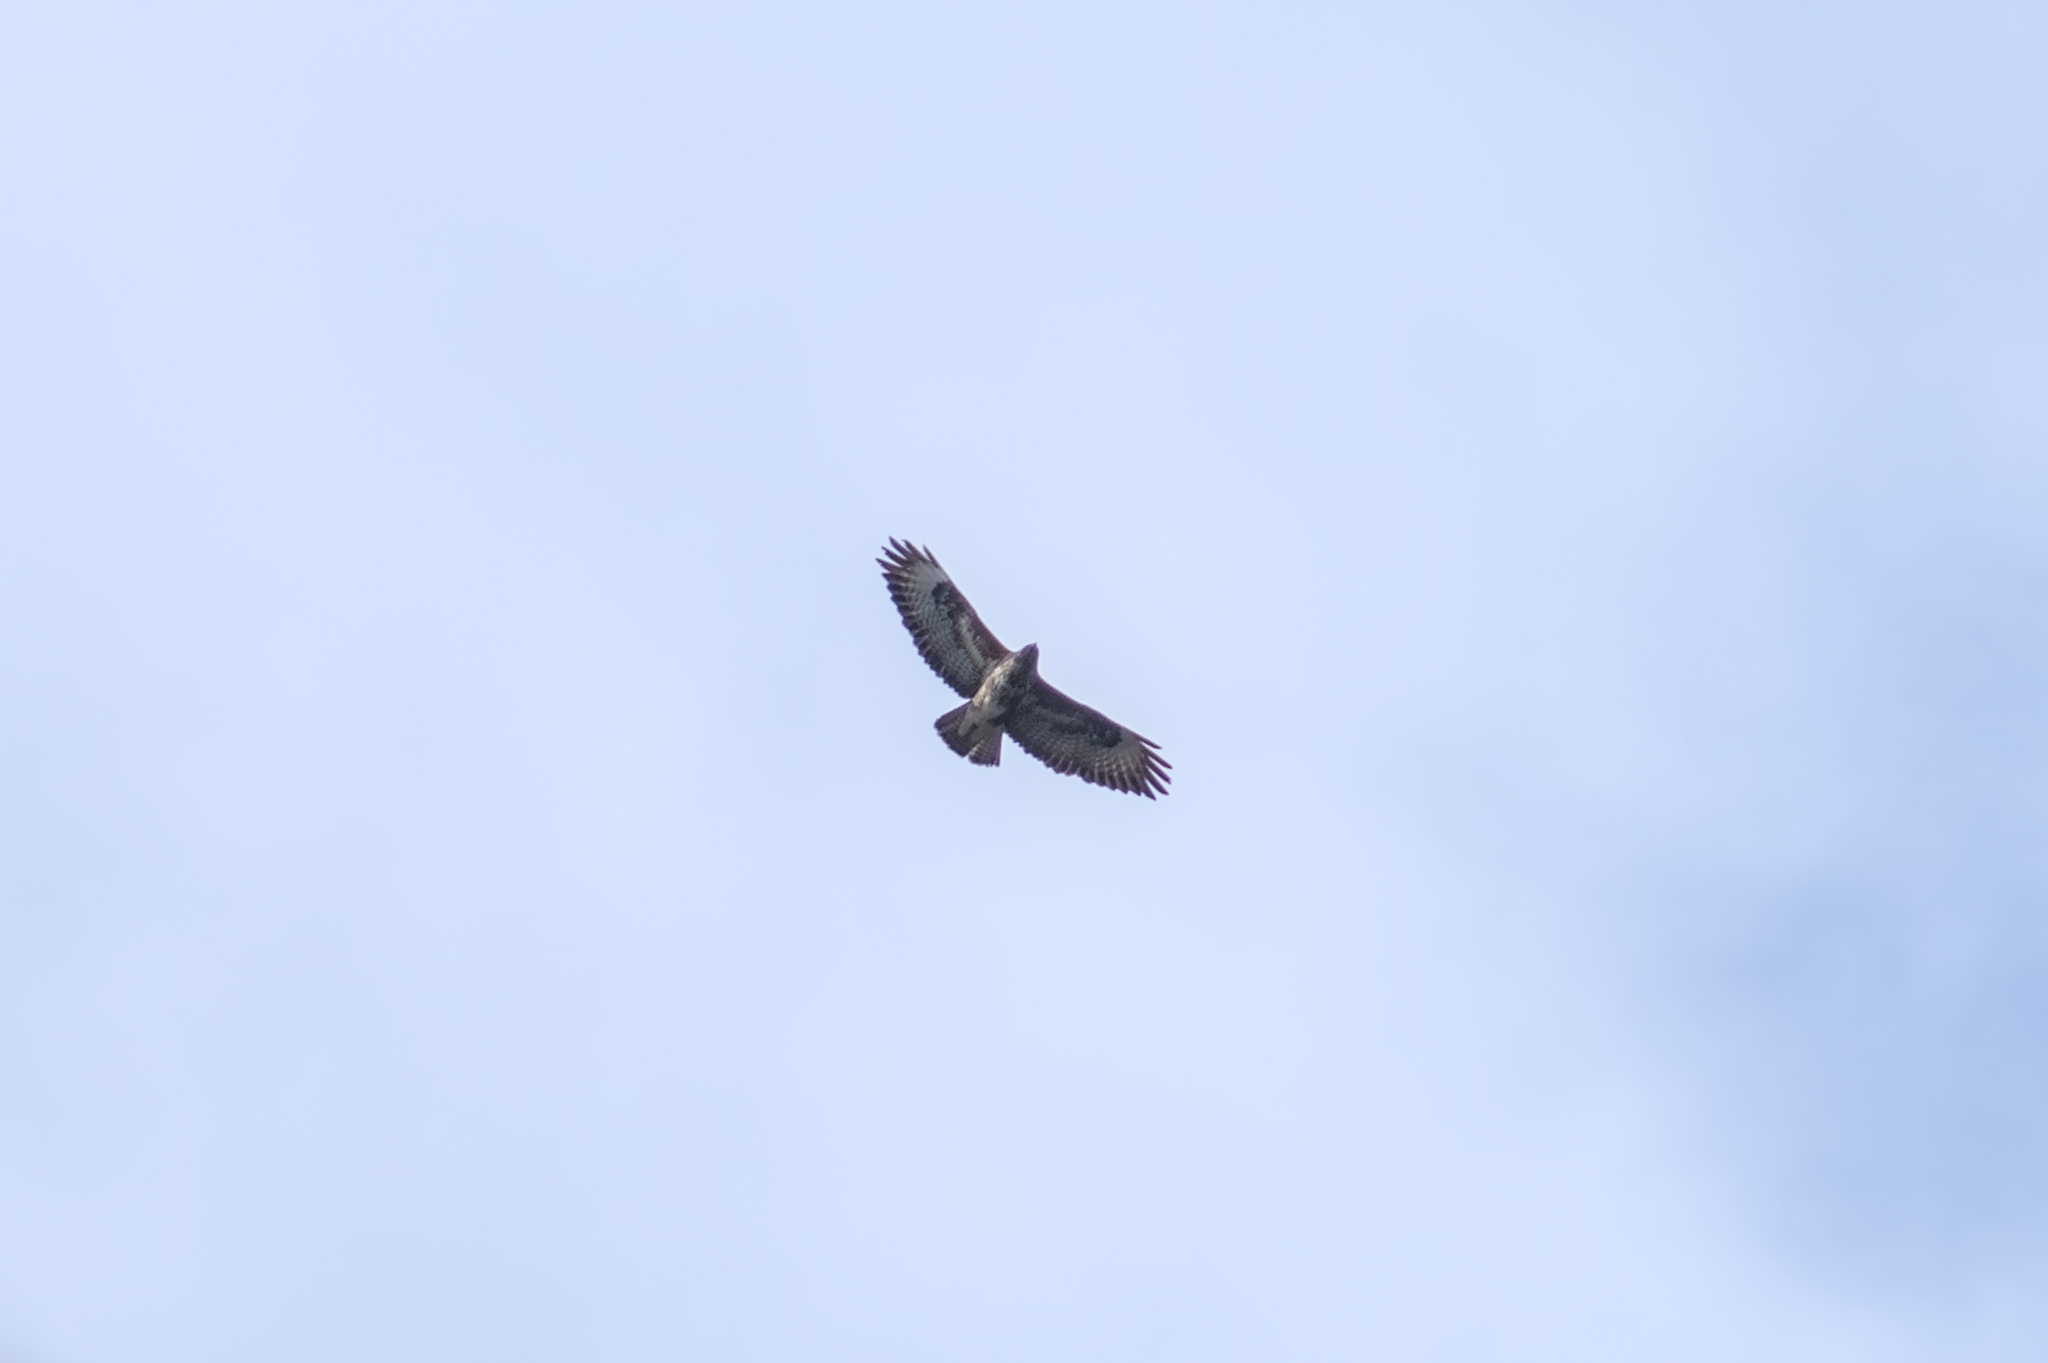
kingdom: Animalia
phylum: Chordata
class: Aves
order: Accipitriformes
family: Accipitridae
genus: Buteo
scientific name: Buteo buteo
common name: Common buzzard
